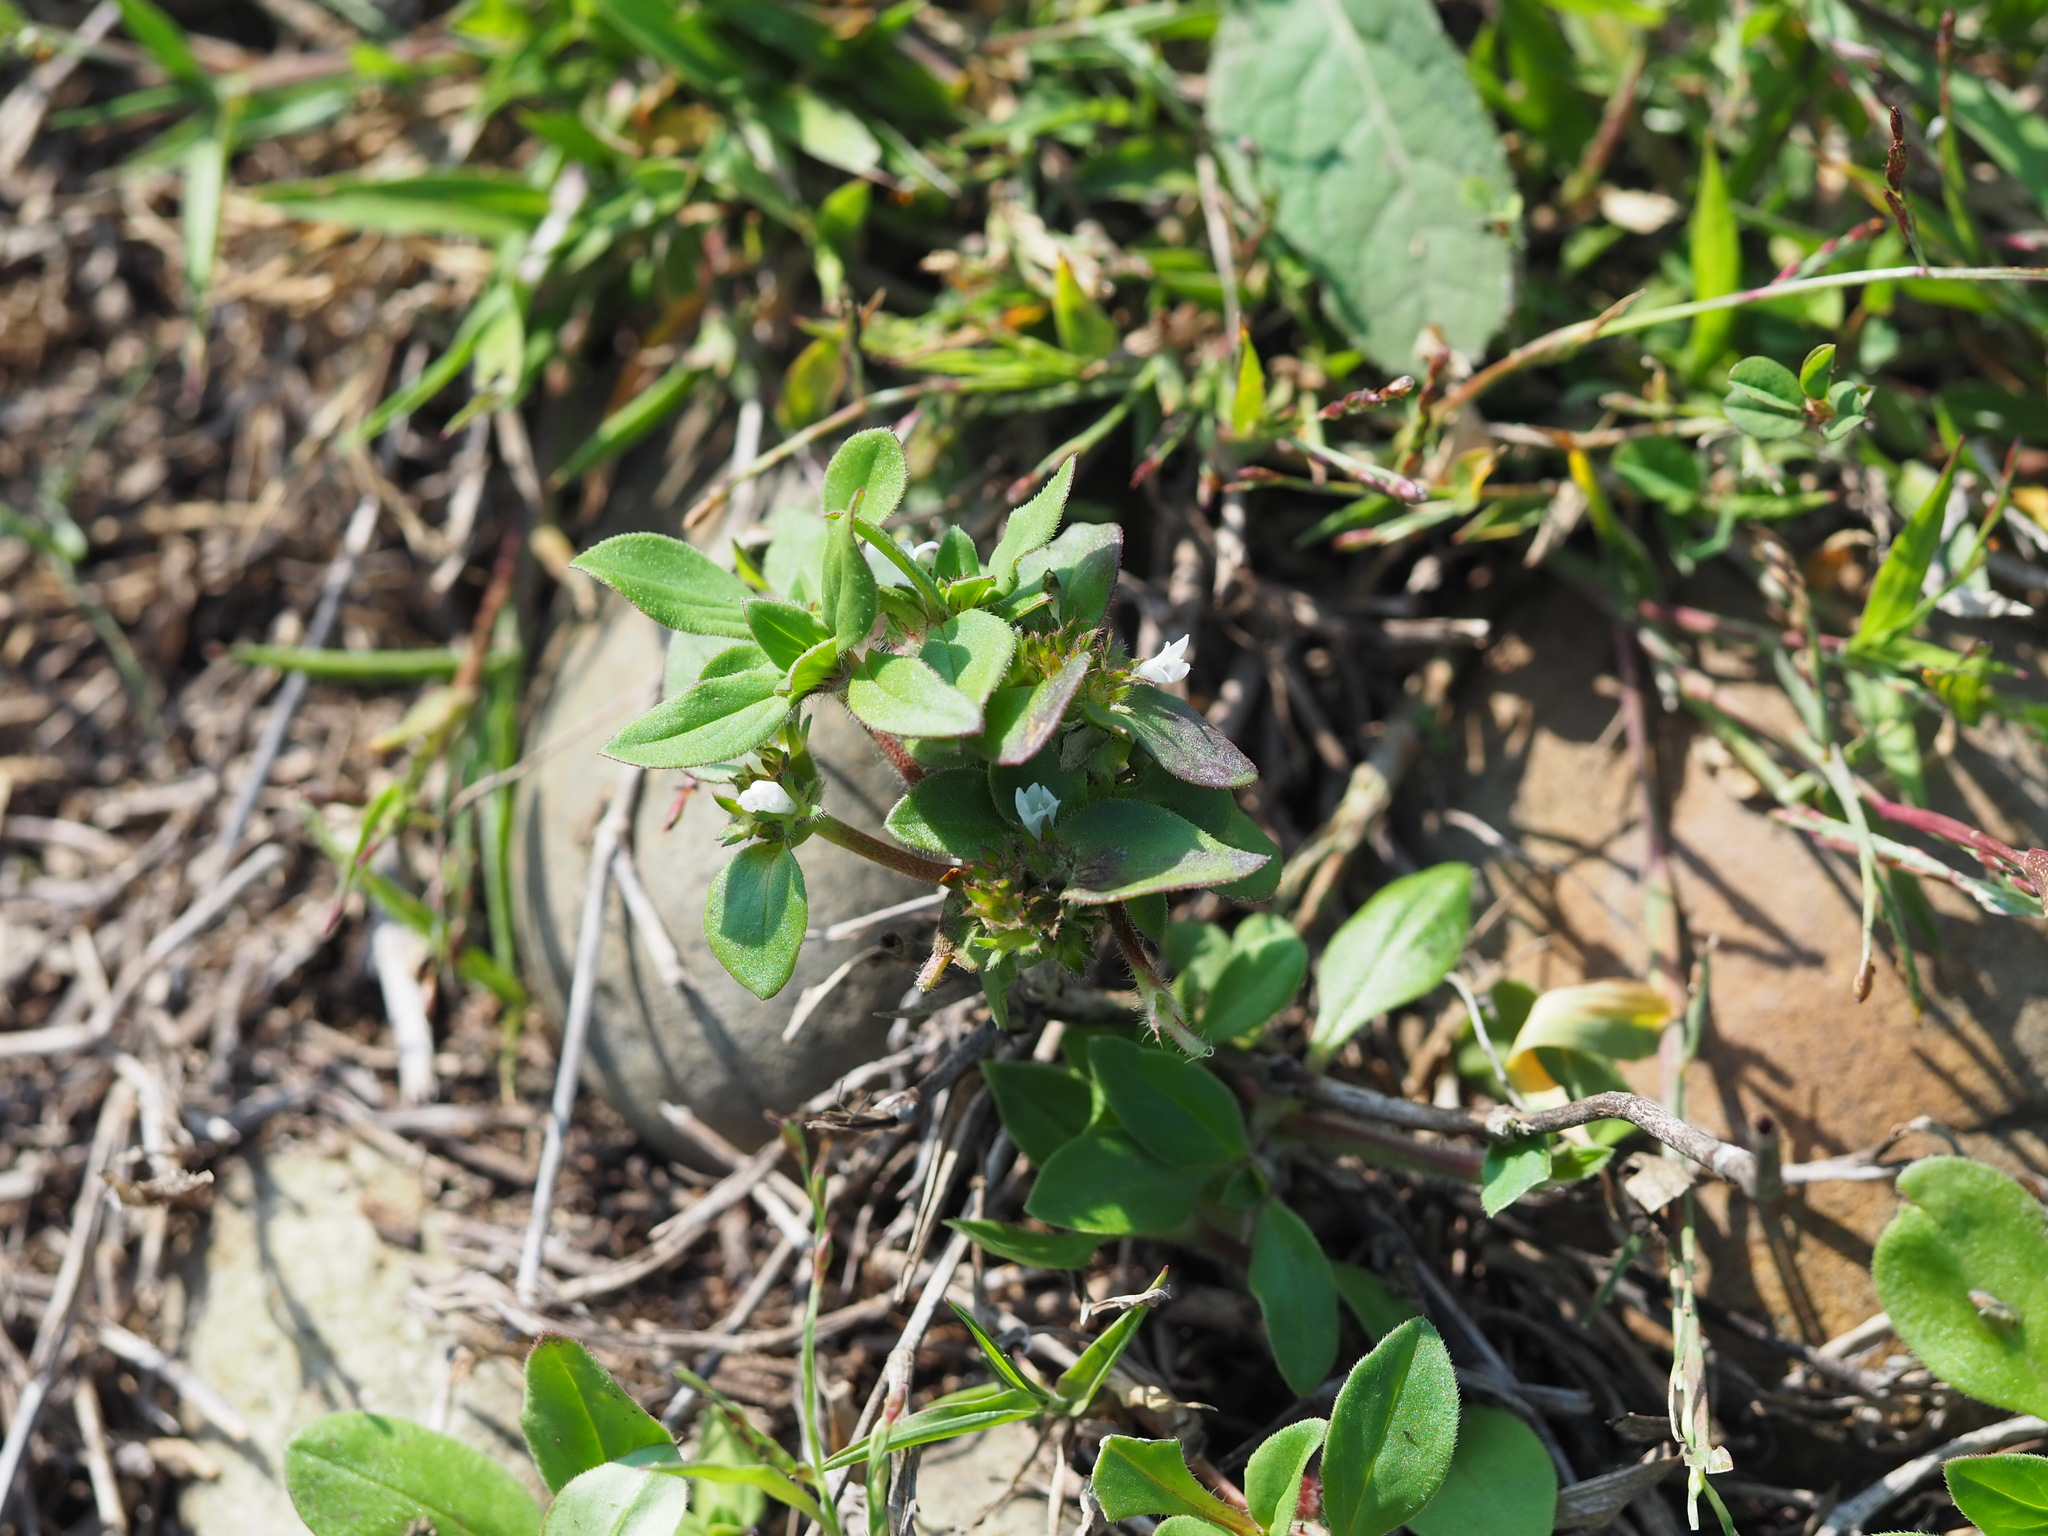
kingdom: Plantae
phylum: Tracheophyta
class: Magnoliopsida
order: Gentianales
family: Rubiaceae
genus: Richardia
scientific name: Richardia brasiliensis
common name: Tropical mexican clover
